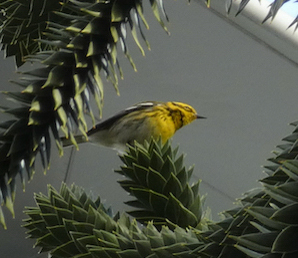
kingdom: Animalia
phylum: Chordata
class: Aves
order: Passeriformes
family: Parulidae
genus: Setophaga
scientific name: Setophaga townsendi
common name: Townsend's warbler
